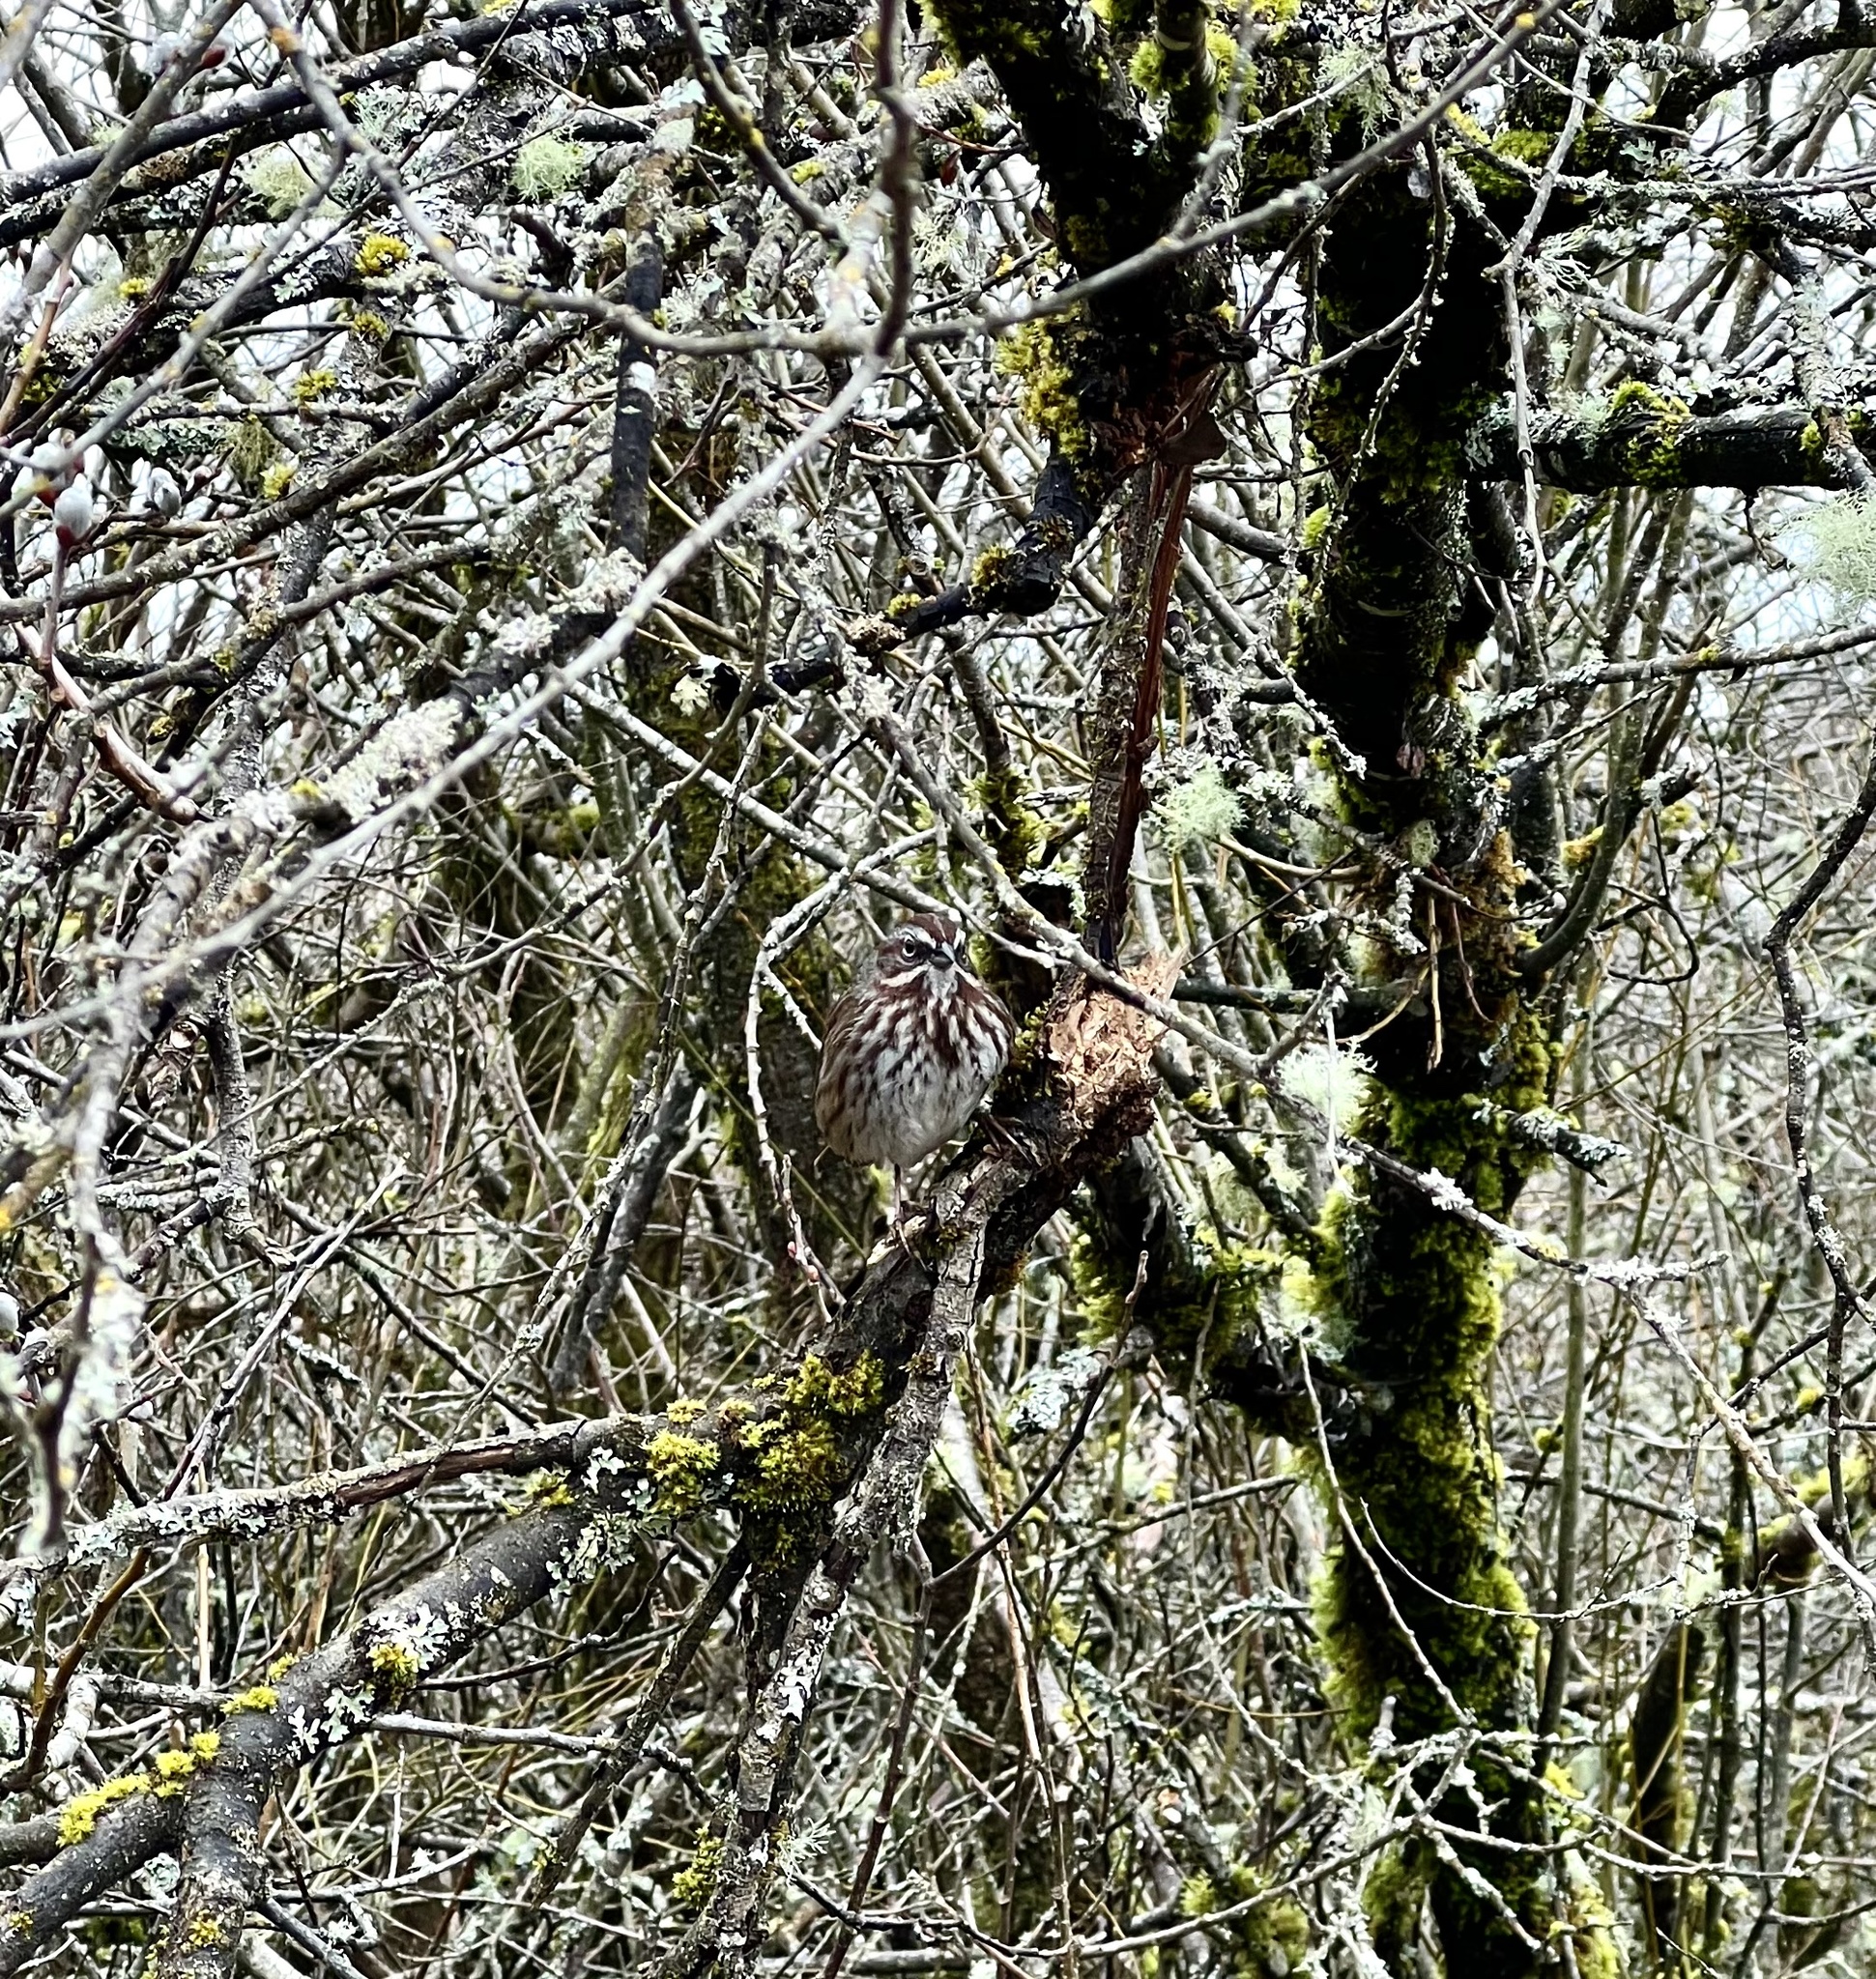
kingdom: Animalia
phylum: Chordata
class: Aves
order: Passeriformes
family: Passerellidae
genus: Melospiza
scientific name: Melospiza melodia
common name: Song sparrow
